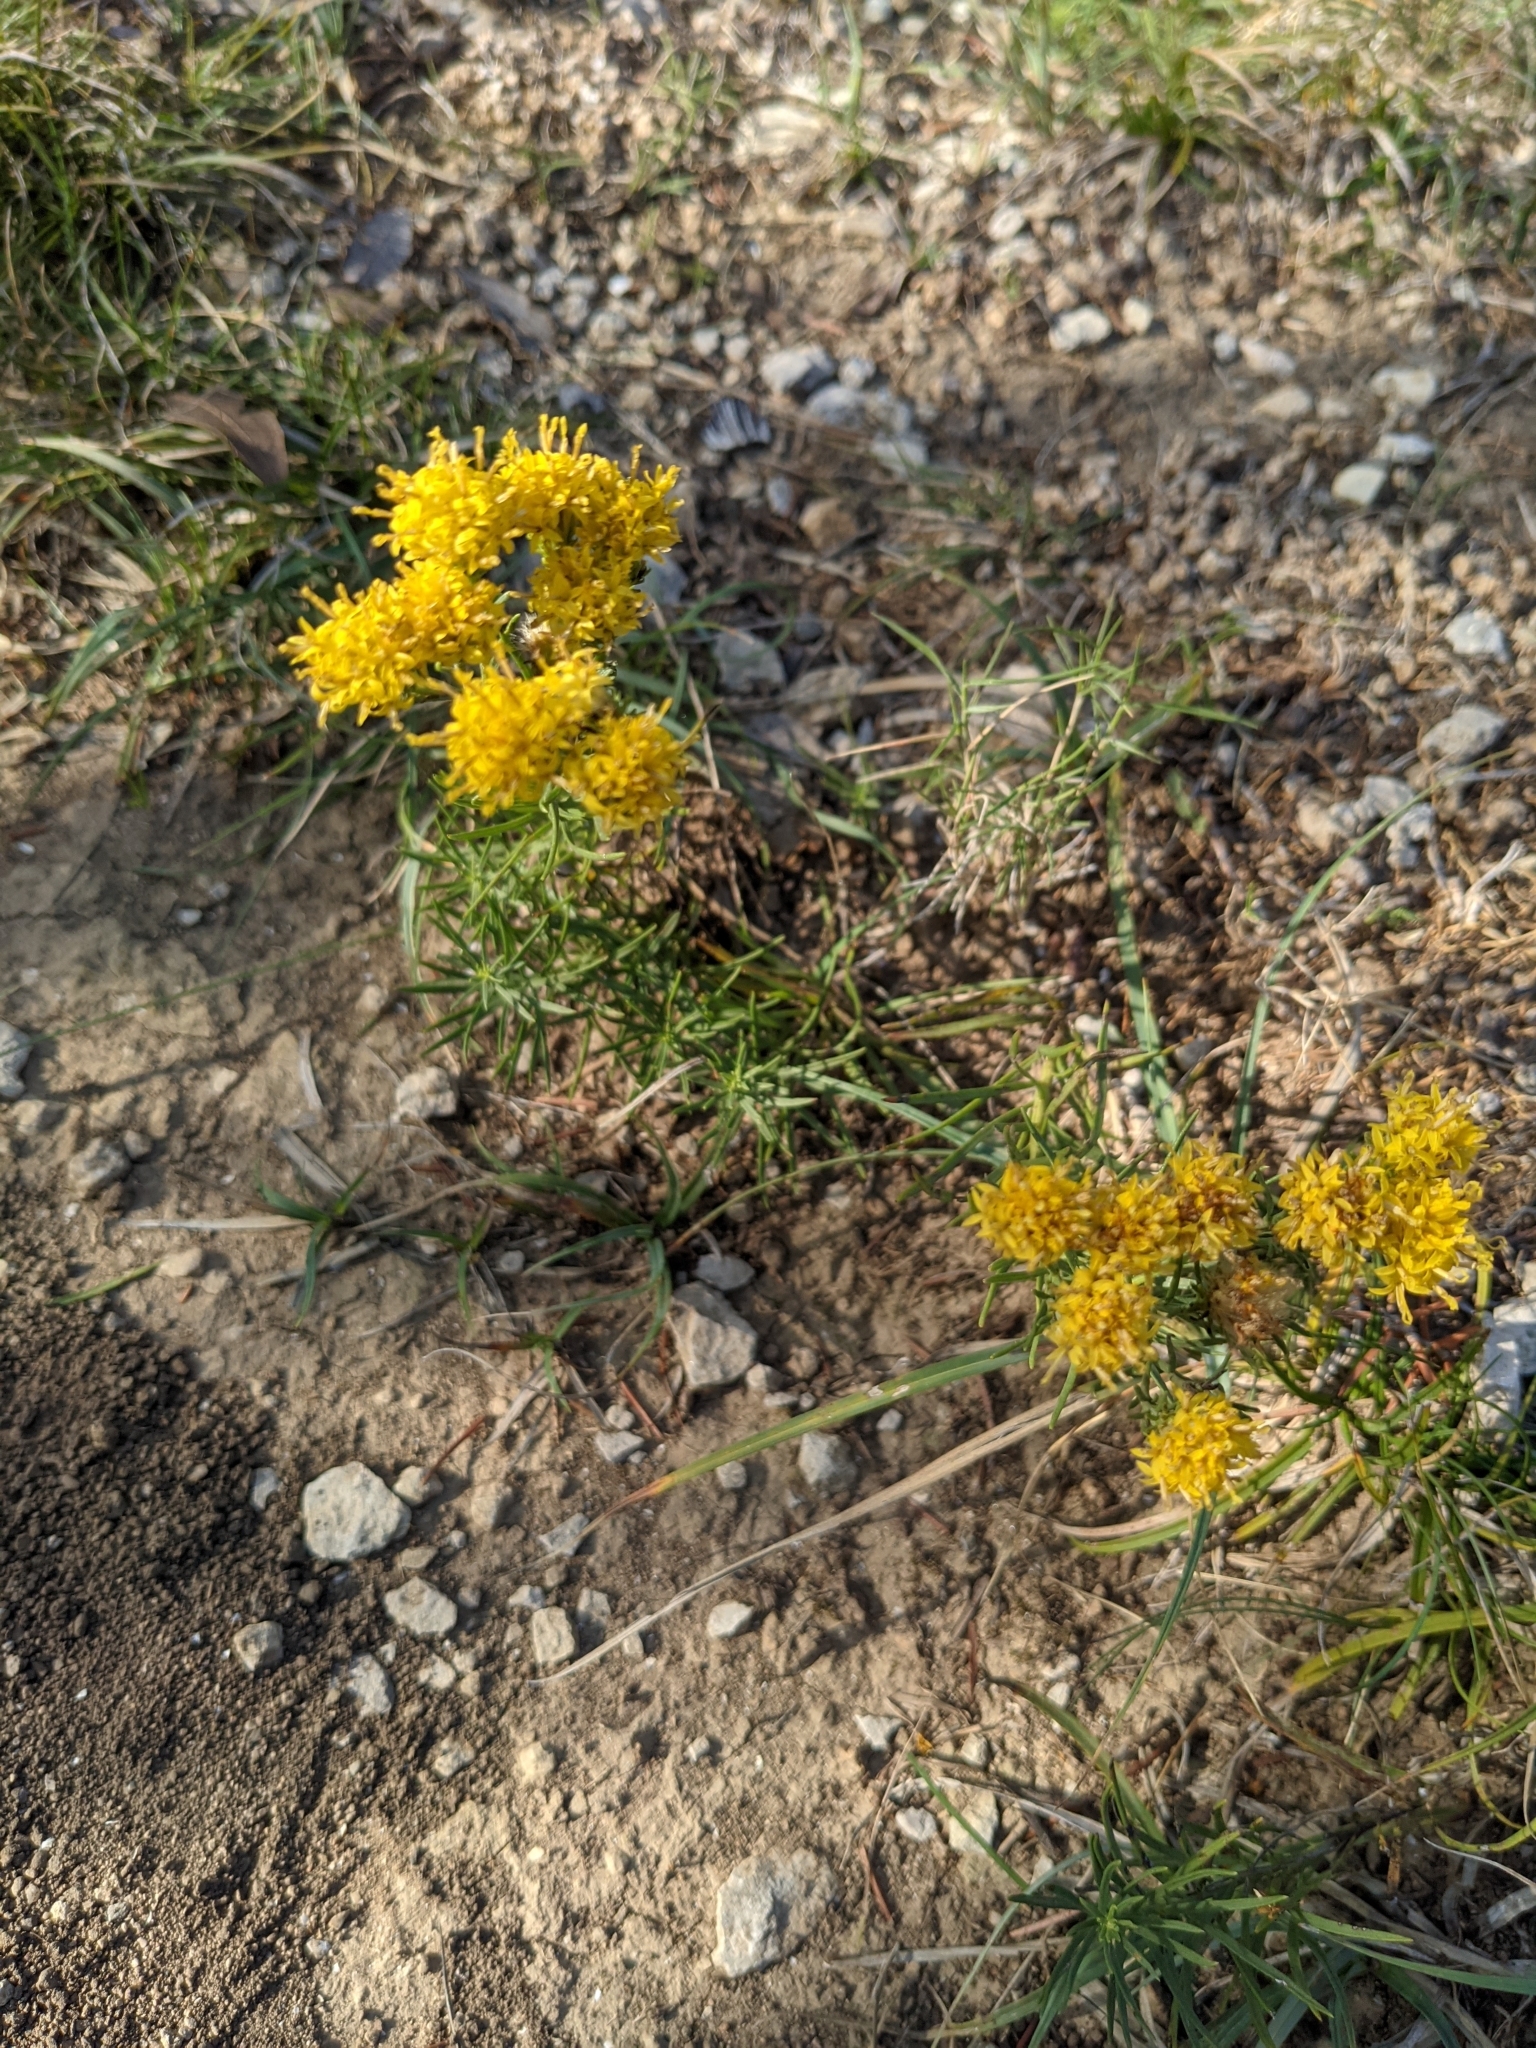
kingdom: Plantae
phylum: Tracheophyta
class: Magnoliopsida
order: Asterales
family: Asteraceae
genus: Galatella
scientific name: Galatella linosyris
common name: Goldilocks aster
